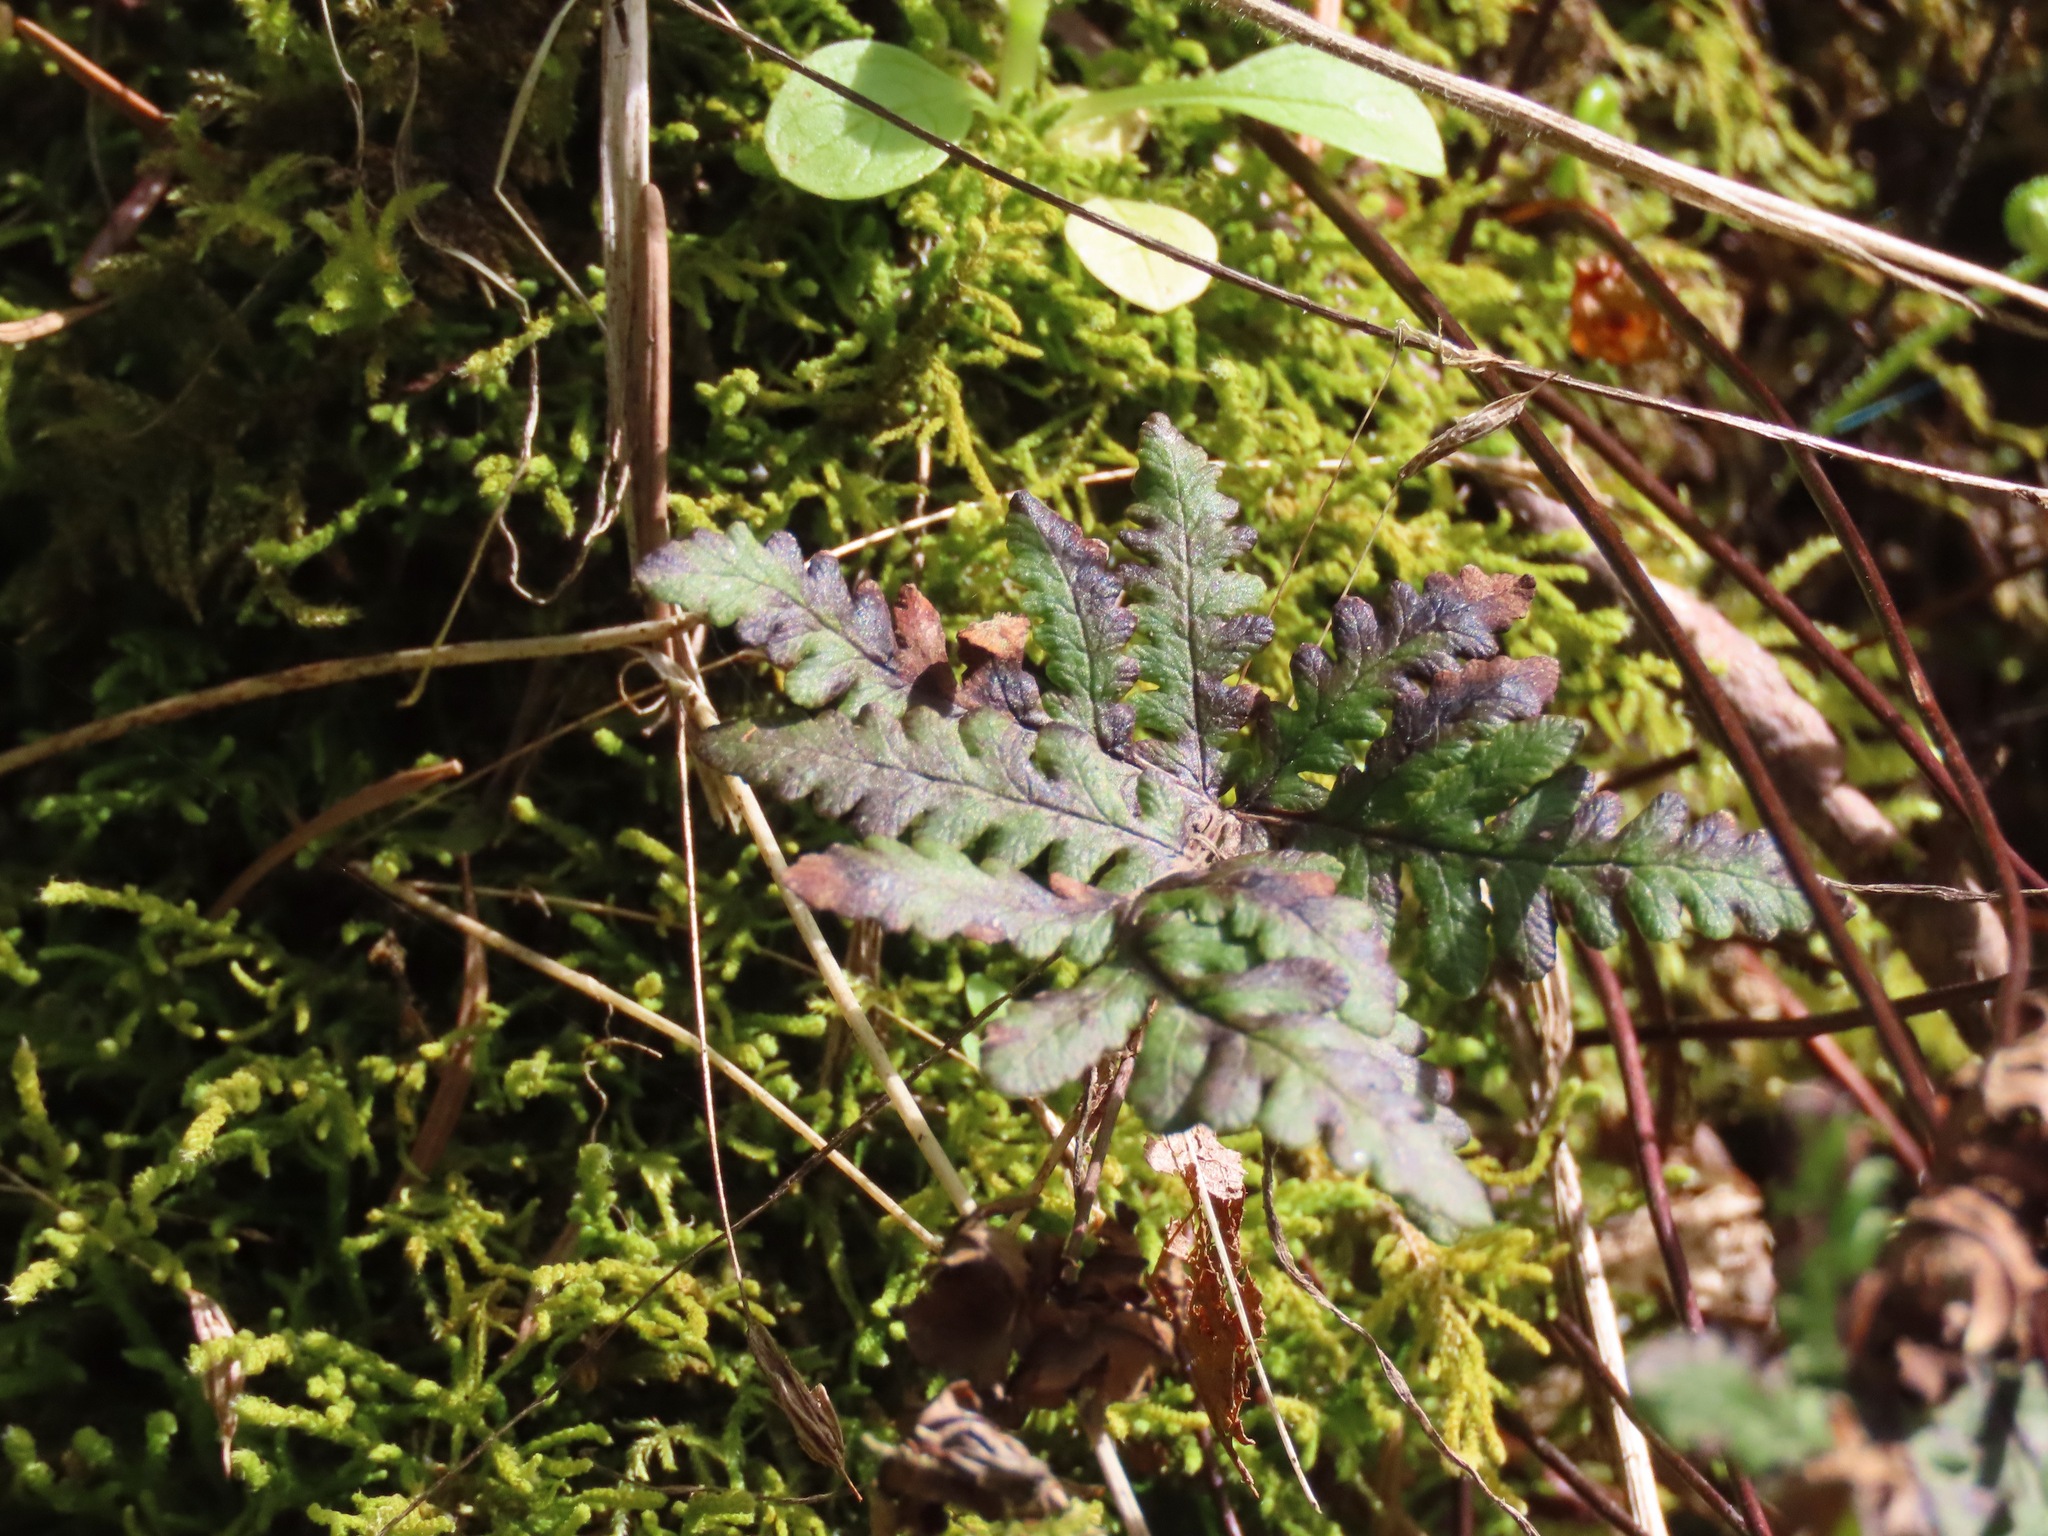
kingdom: Plantae
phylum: Tracheophyta
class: Polypodiopsida
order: Polypodiales
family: Pteridaceae
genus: Pentagramma
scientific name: Pentagramma triangularis
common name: Gold fern
